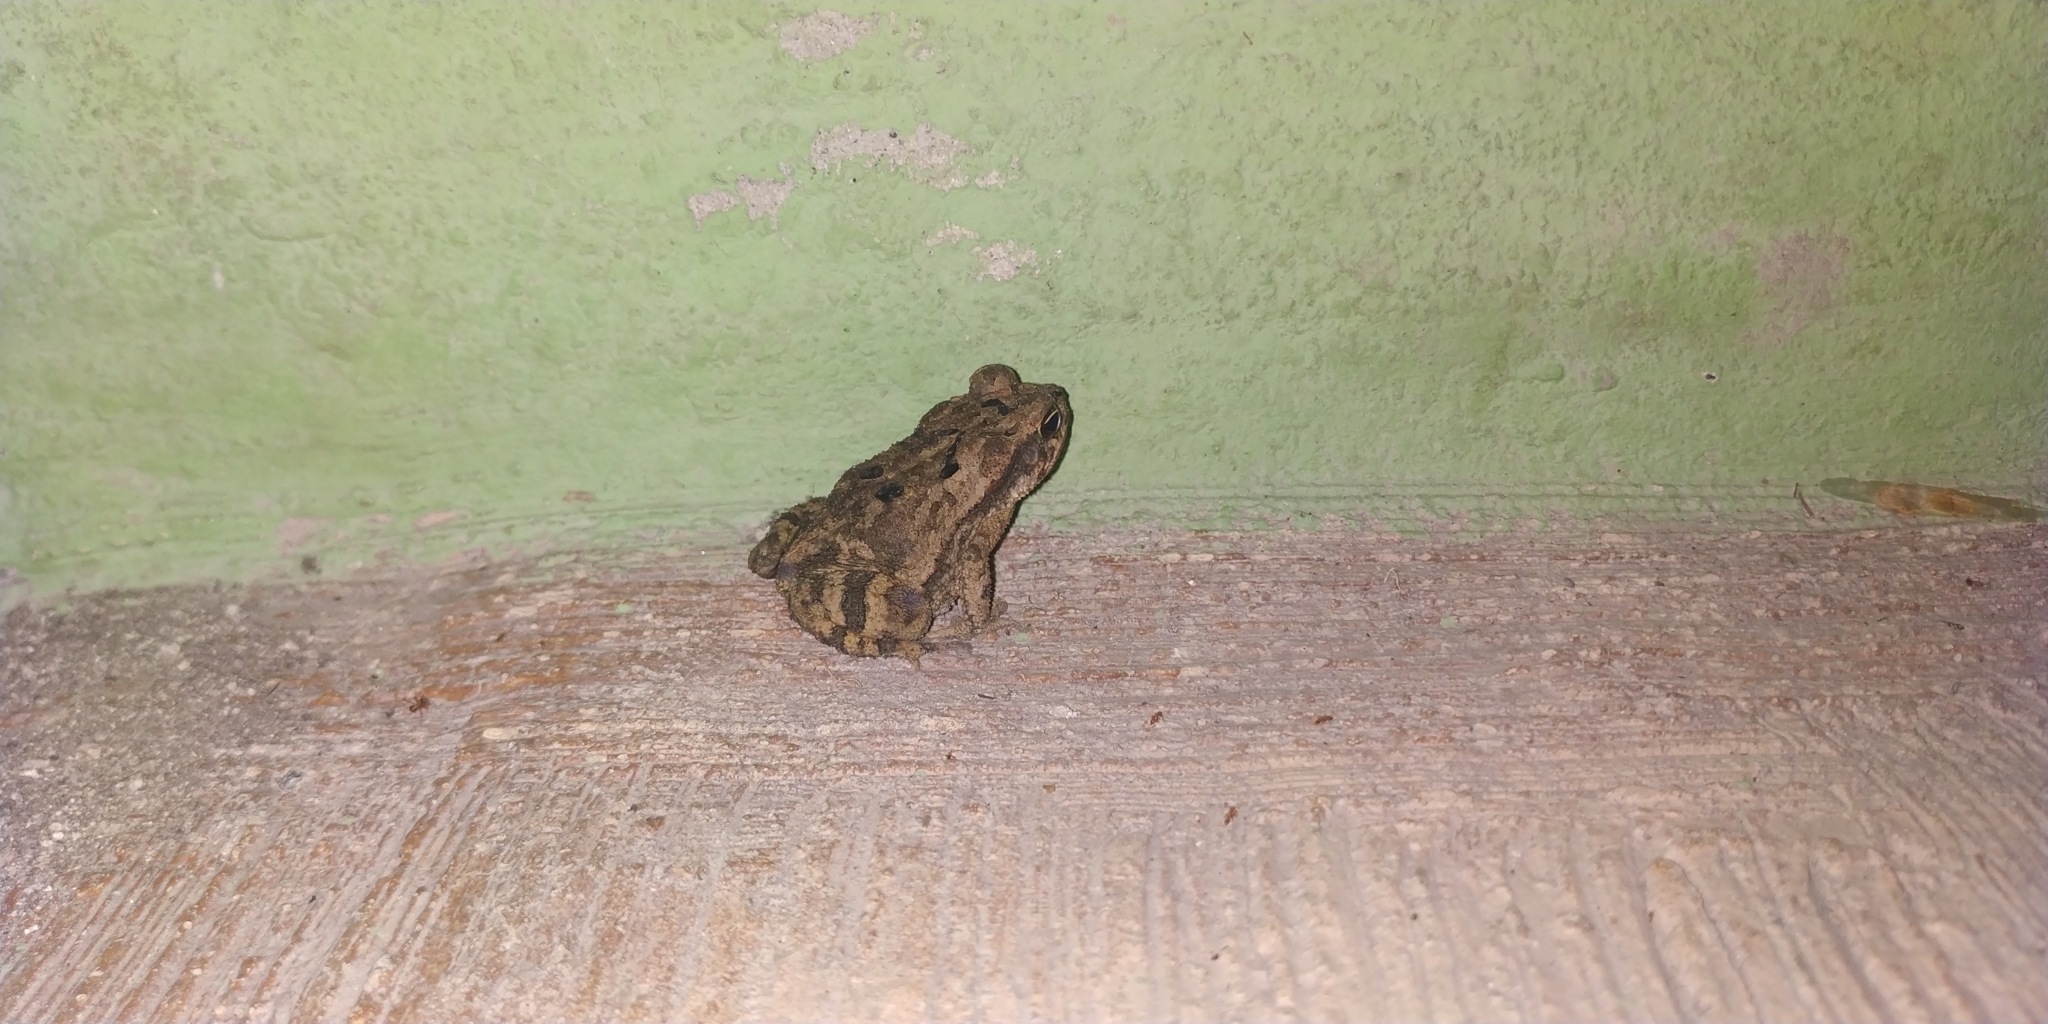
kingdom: Animalia
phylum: Chordata
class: Amphibia
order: Anura
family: Bufonidae
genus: Incilius
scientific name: Incilius valliceps
